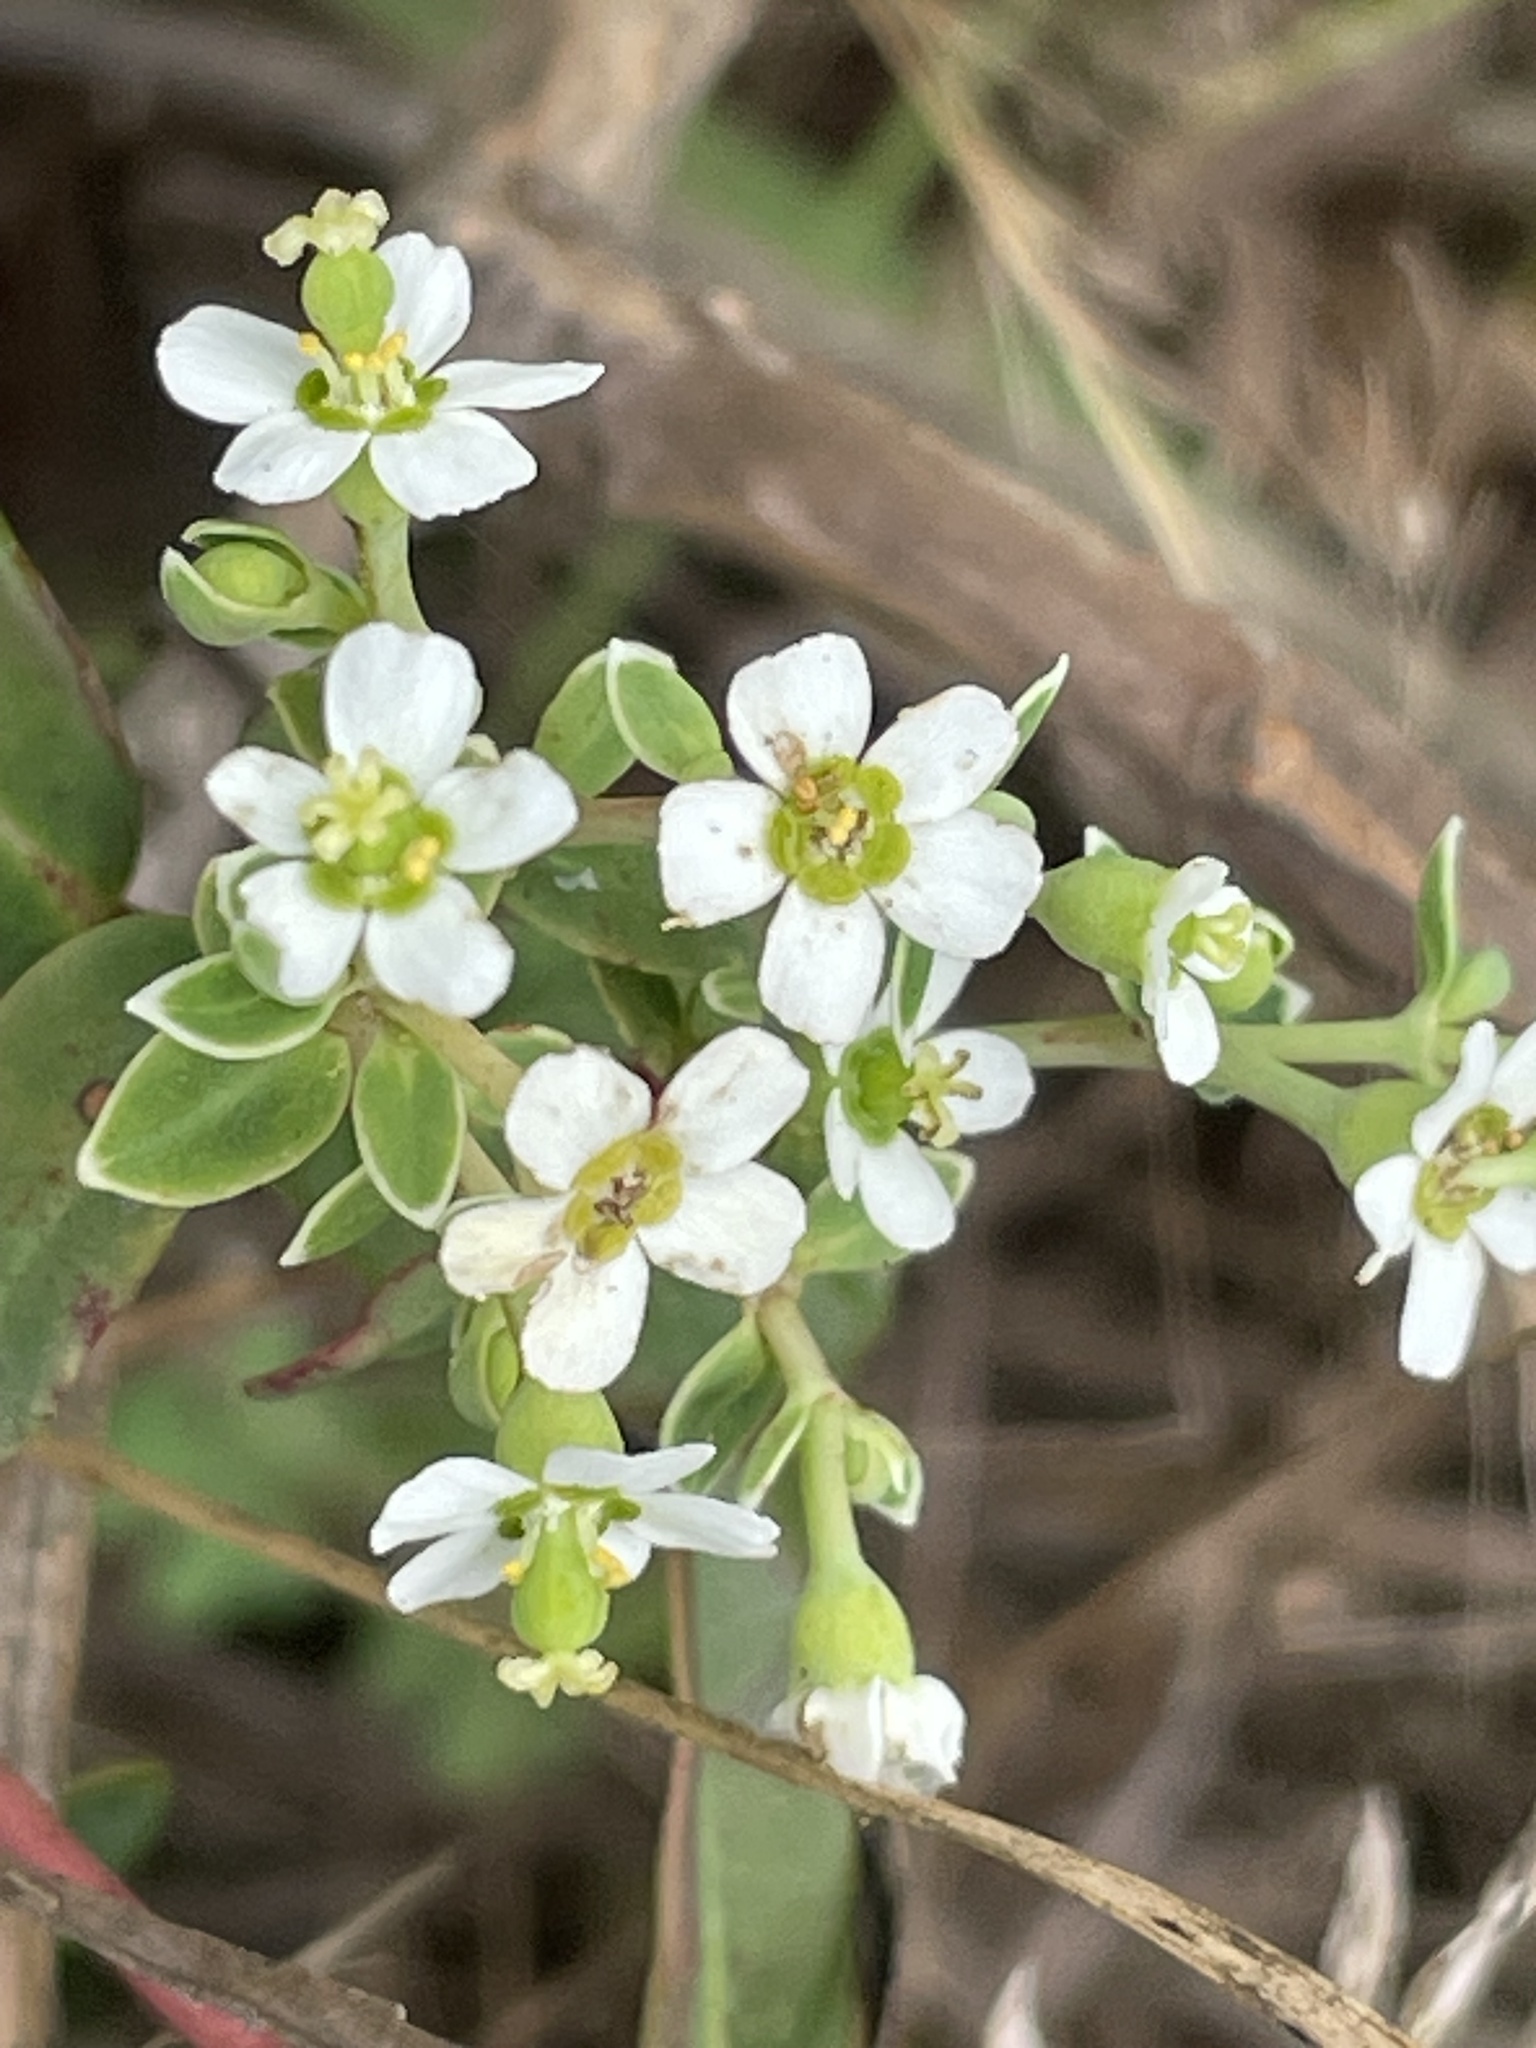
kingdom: Plantae
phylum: Tracheophyta
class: Magnoliopsida
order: Malpighiales
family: Euphorbiaceae
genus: Euphorbia
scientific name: Euphorbia corollata
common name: Flowering spurge
